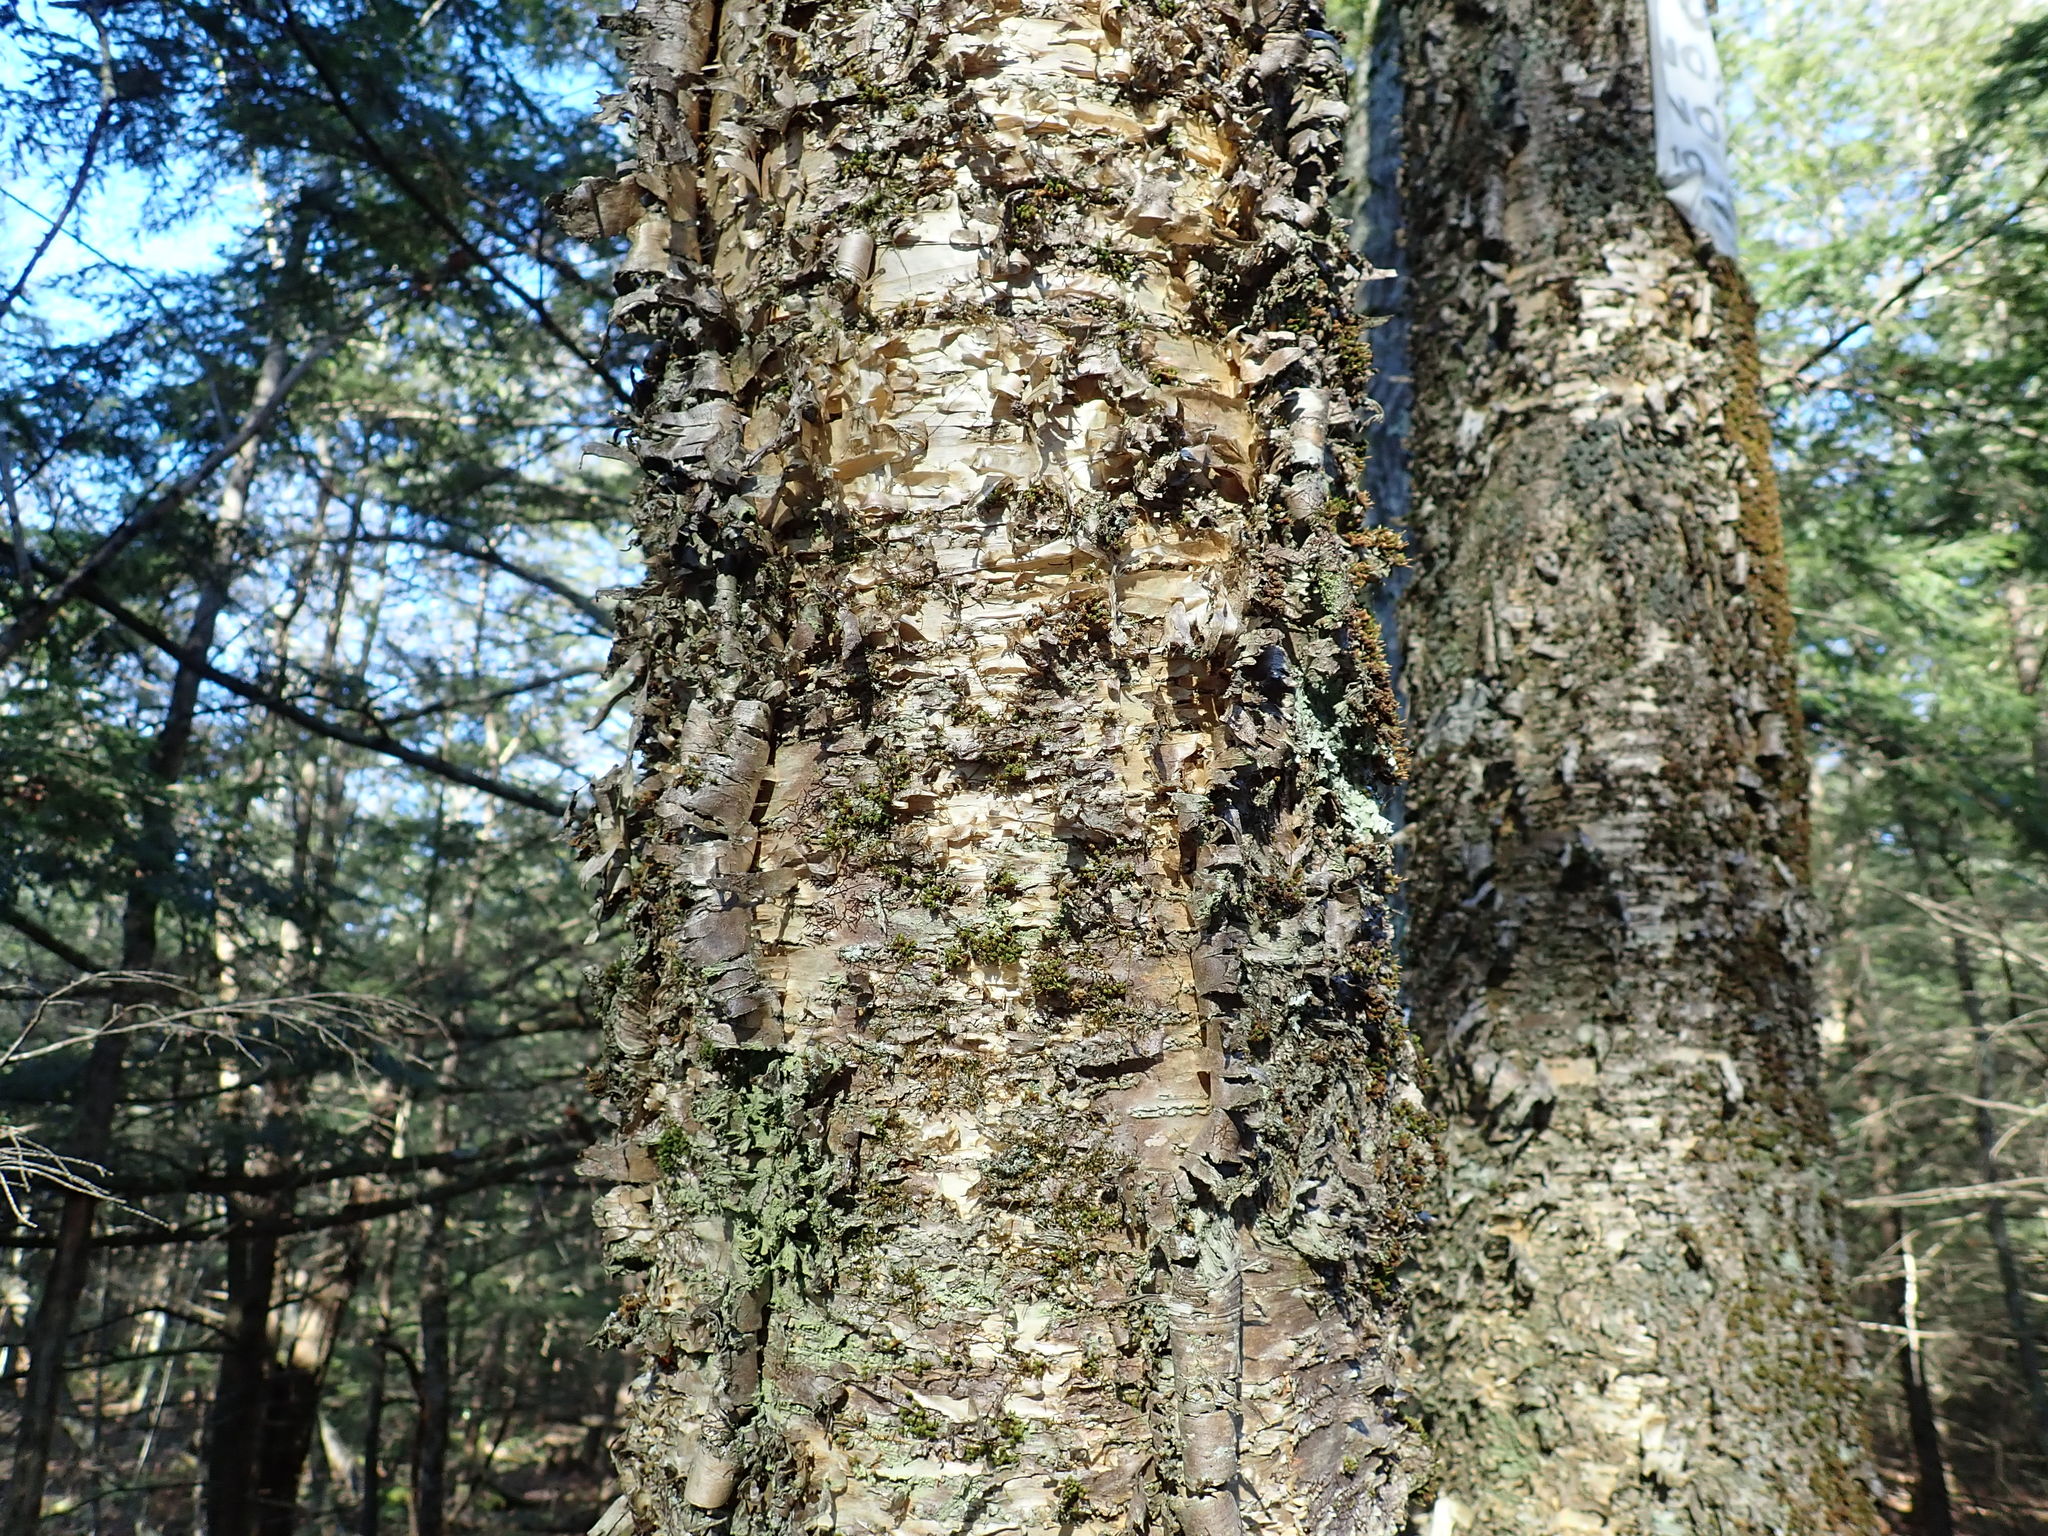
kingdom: Plantae
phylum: Tracheophyta
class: Magnoliopsida
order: Fagales
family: Betulaceae
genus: Betula
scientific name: Betula alleghaniensis
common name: Yellow birch
